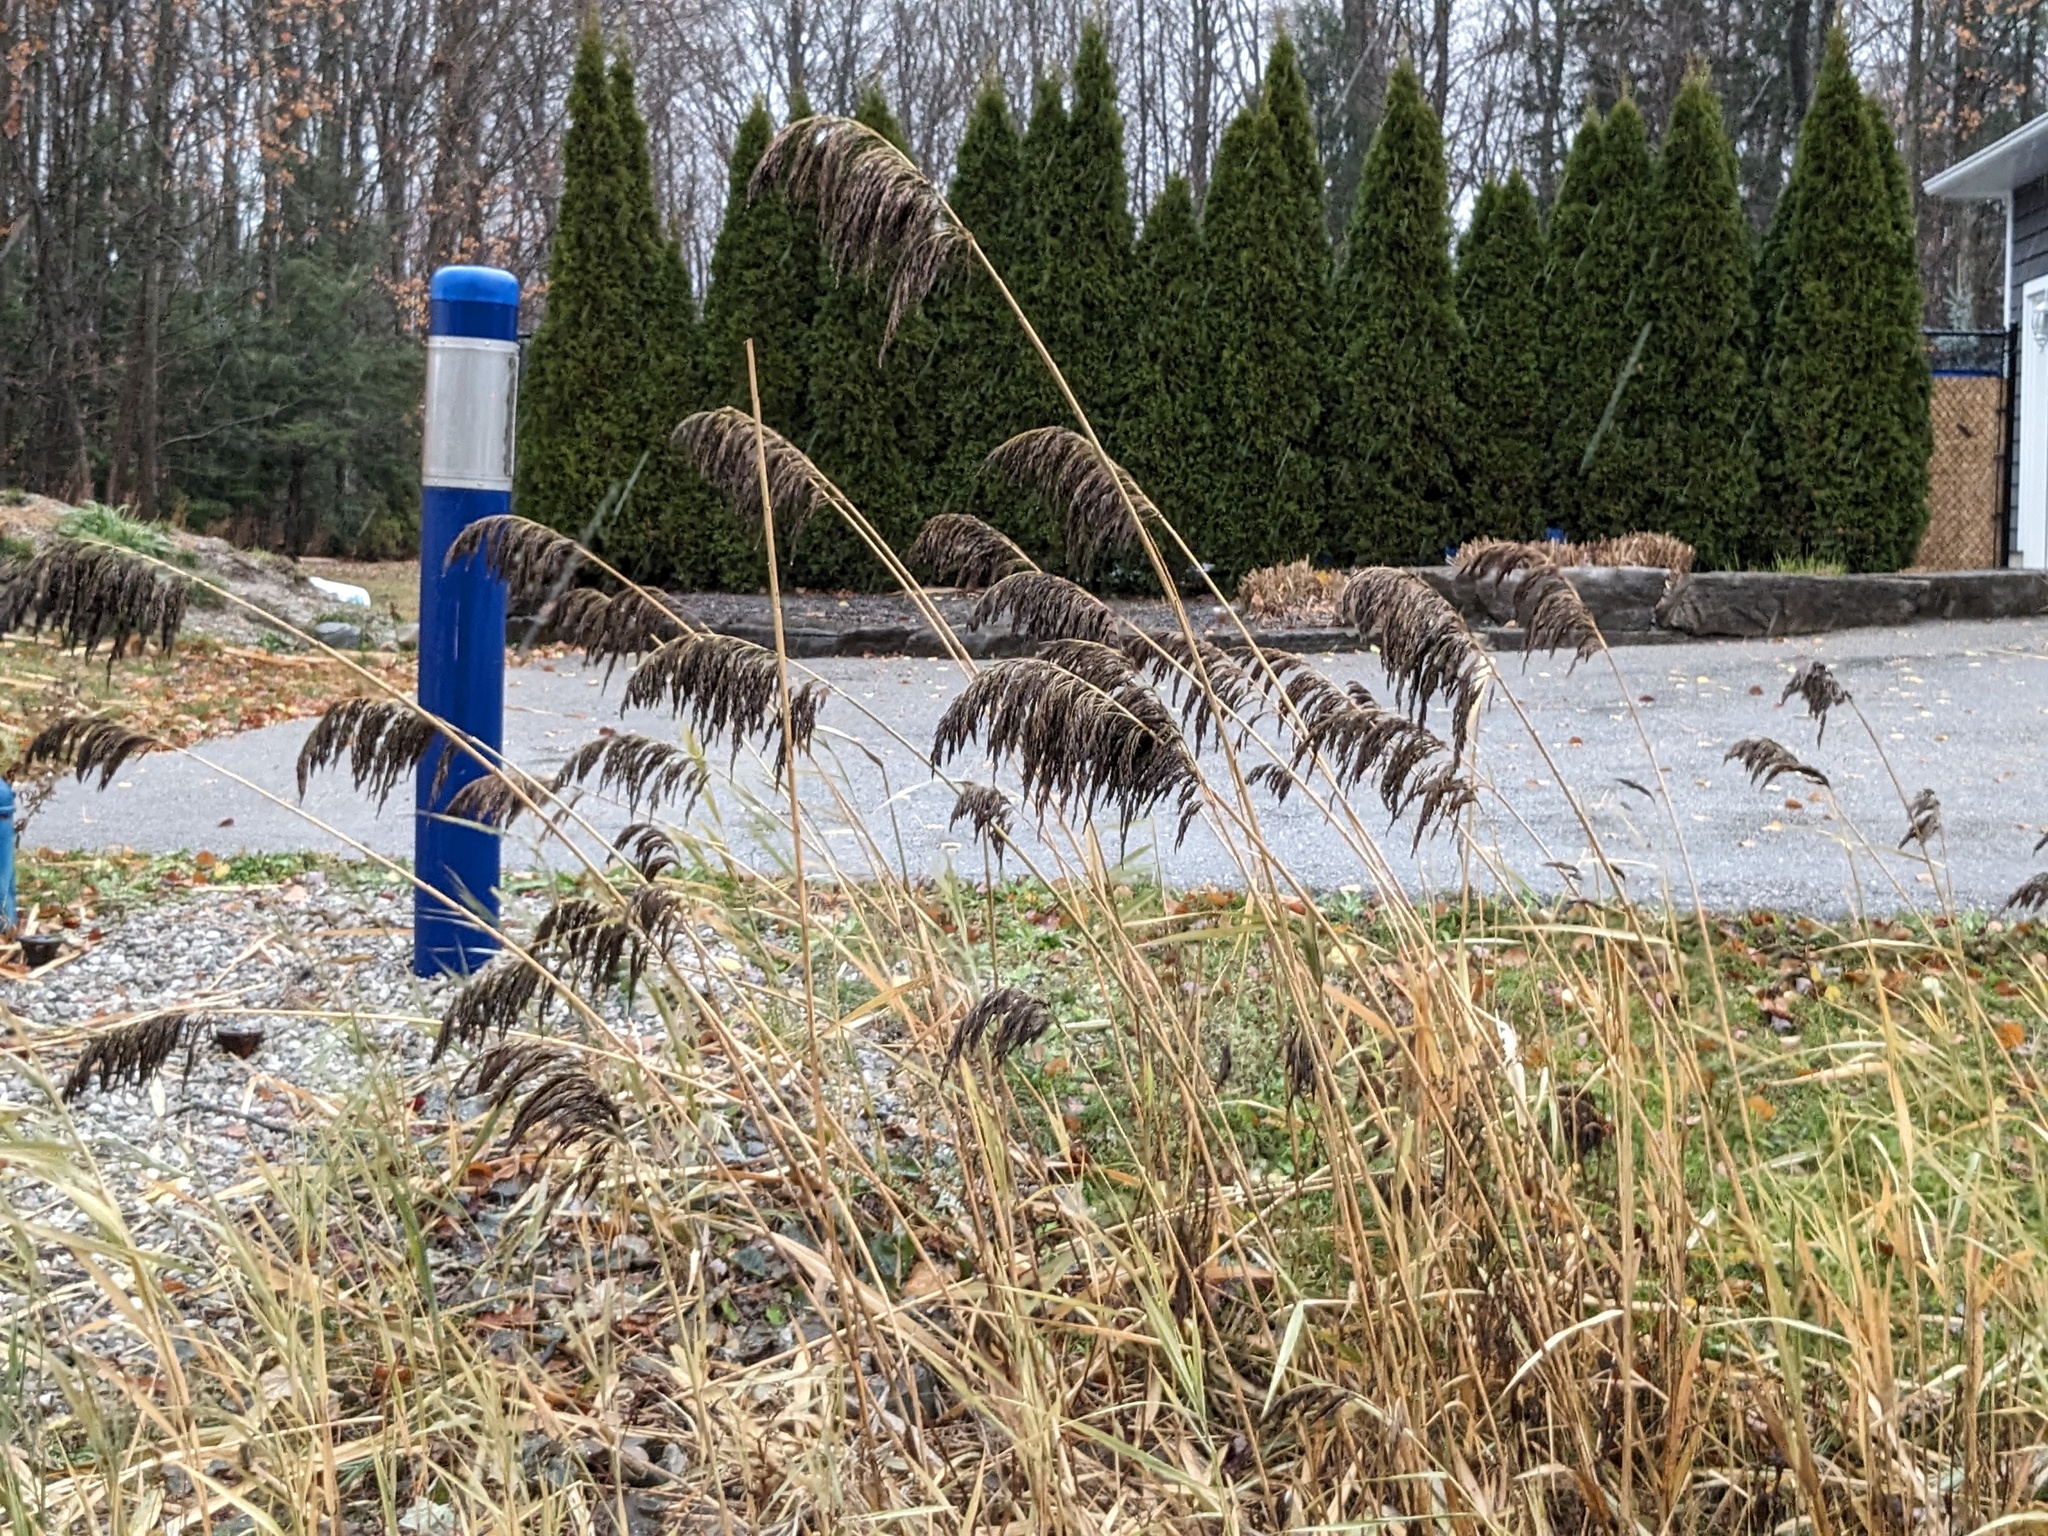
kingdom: Plantae
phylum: Tracheophyta
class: Liliopsida
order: Poales
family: Poaceae
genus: Phragmites
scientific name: Phragmites australis
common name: Common reed
